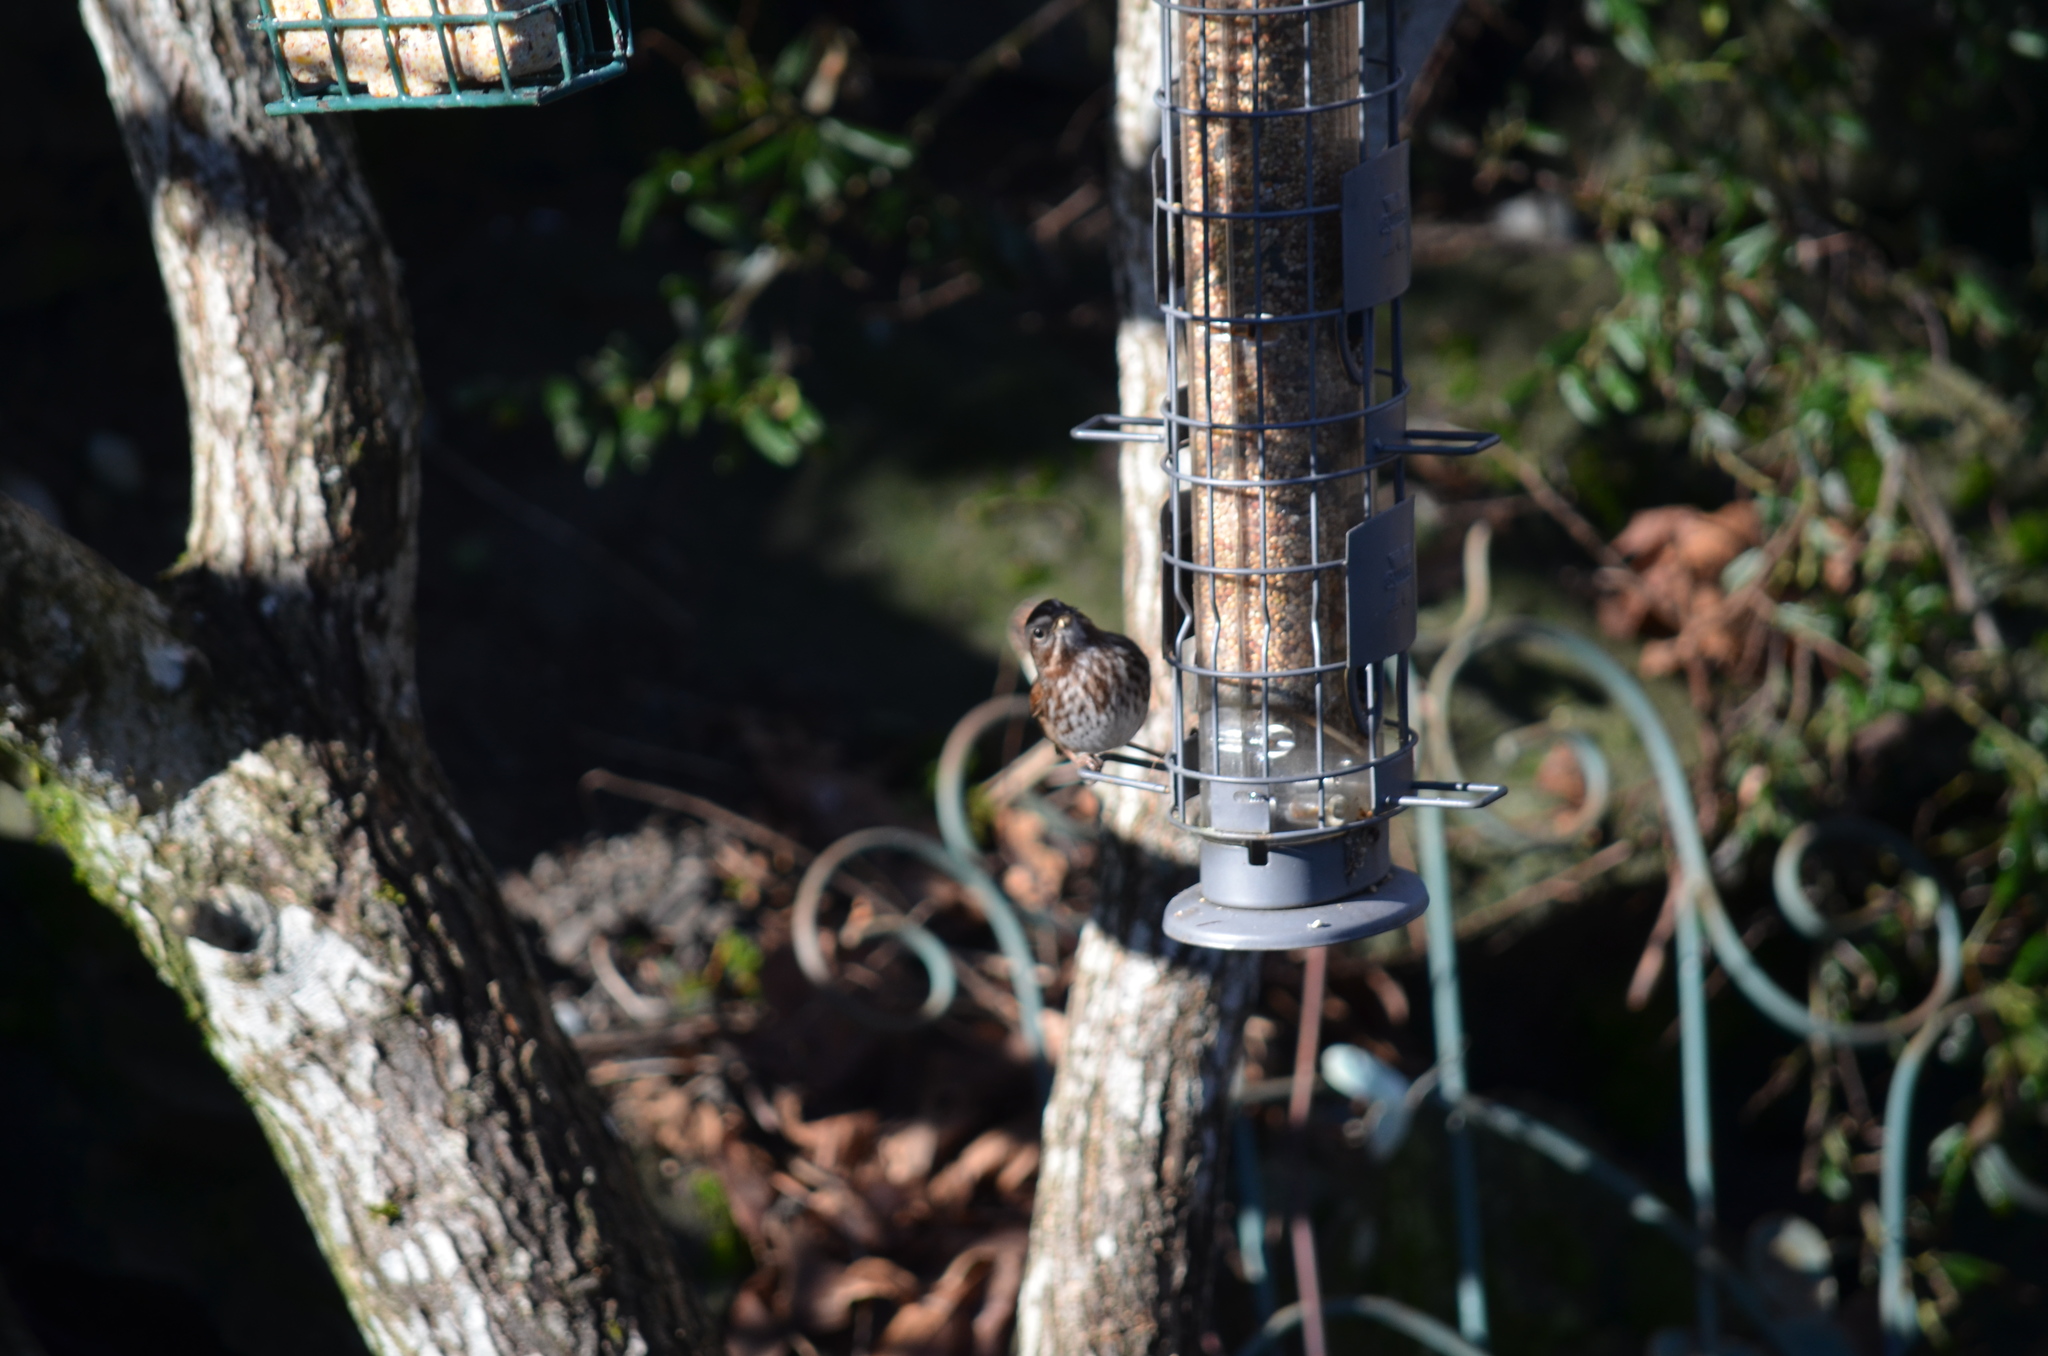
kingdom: Animalia
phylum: Chordata
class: Aves
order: Passeriformes
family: Passerellidae
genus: Melospiza
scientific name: Melospiza melodia
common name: Song sparrow
